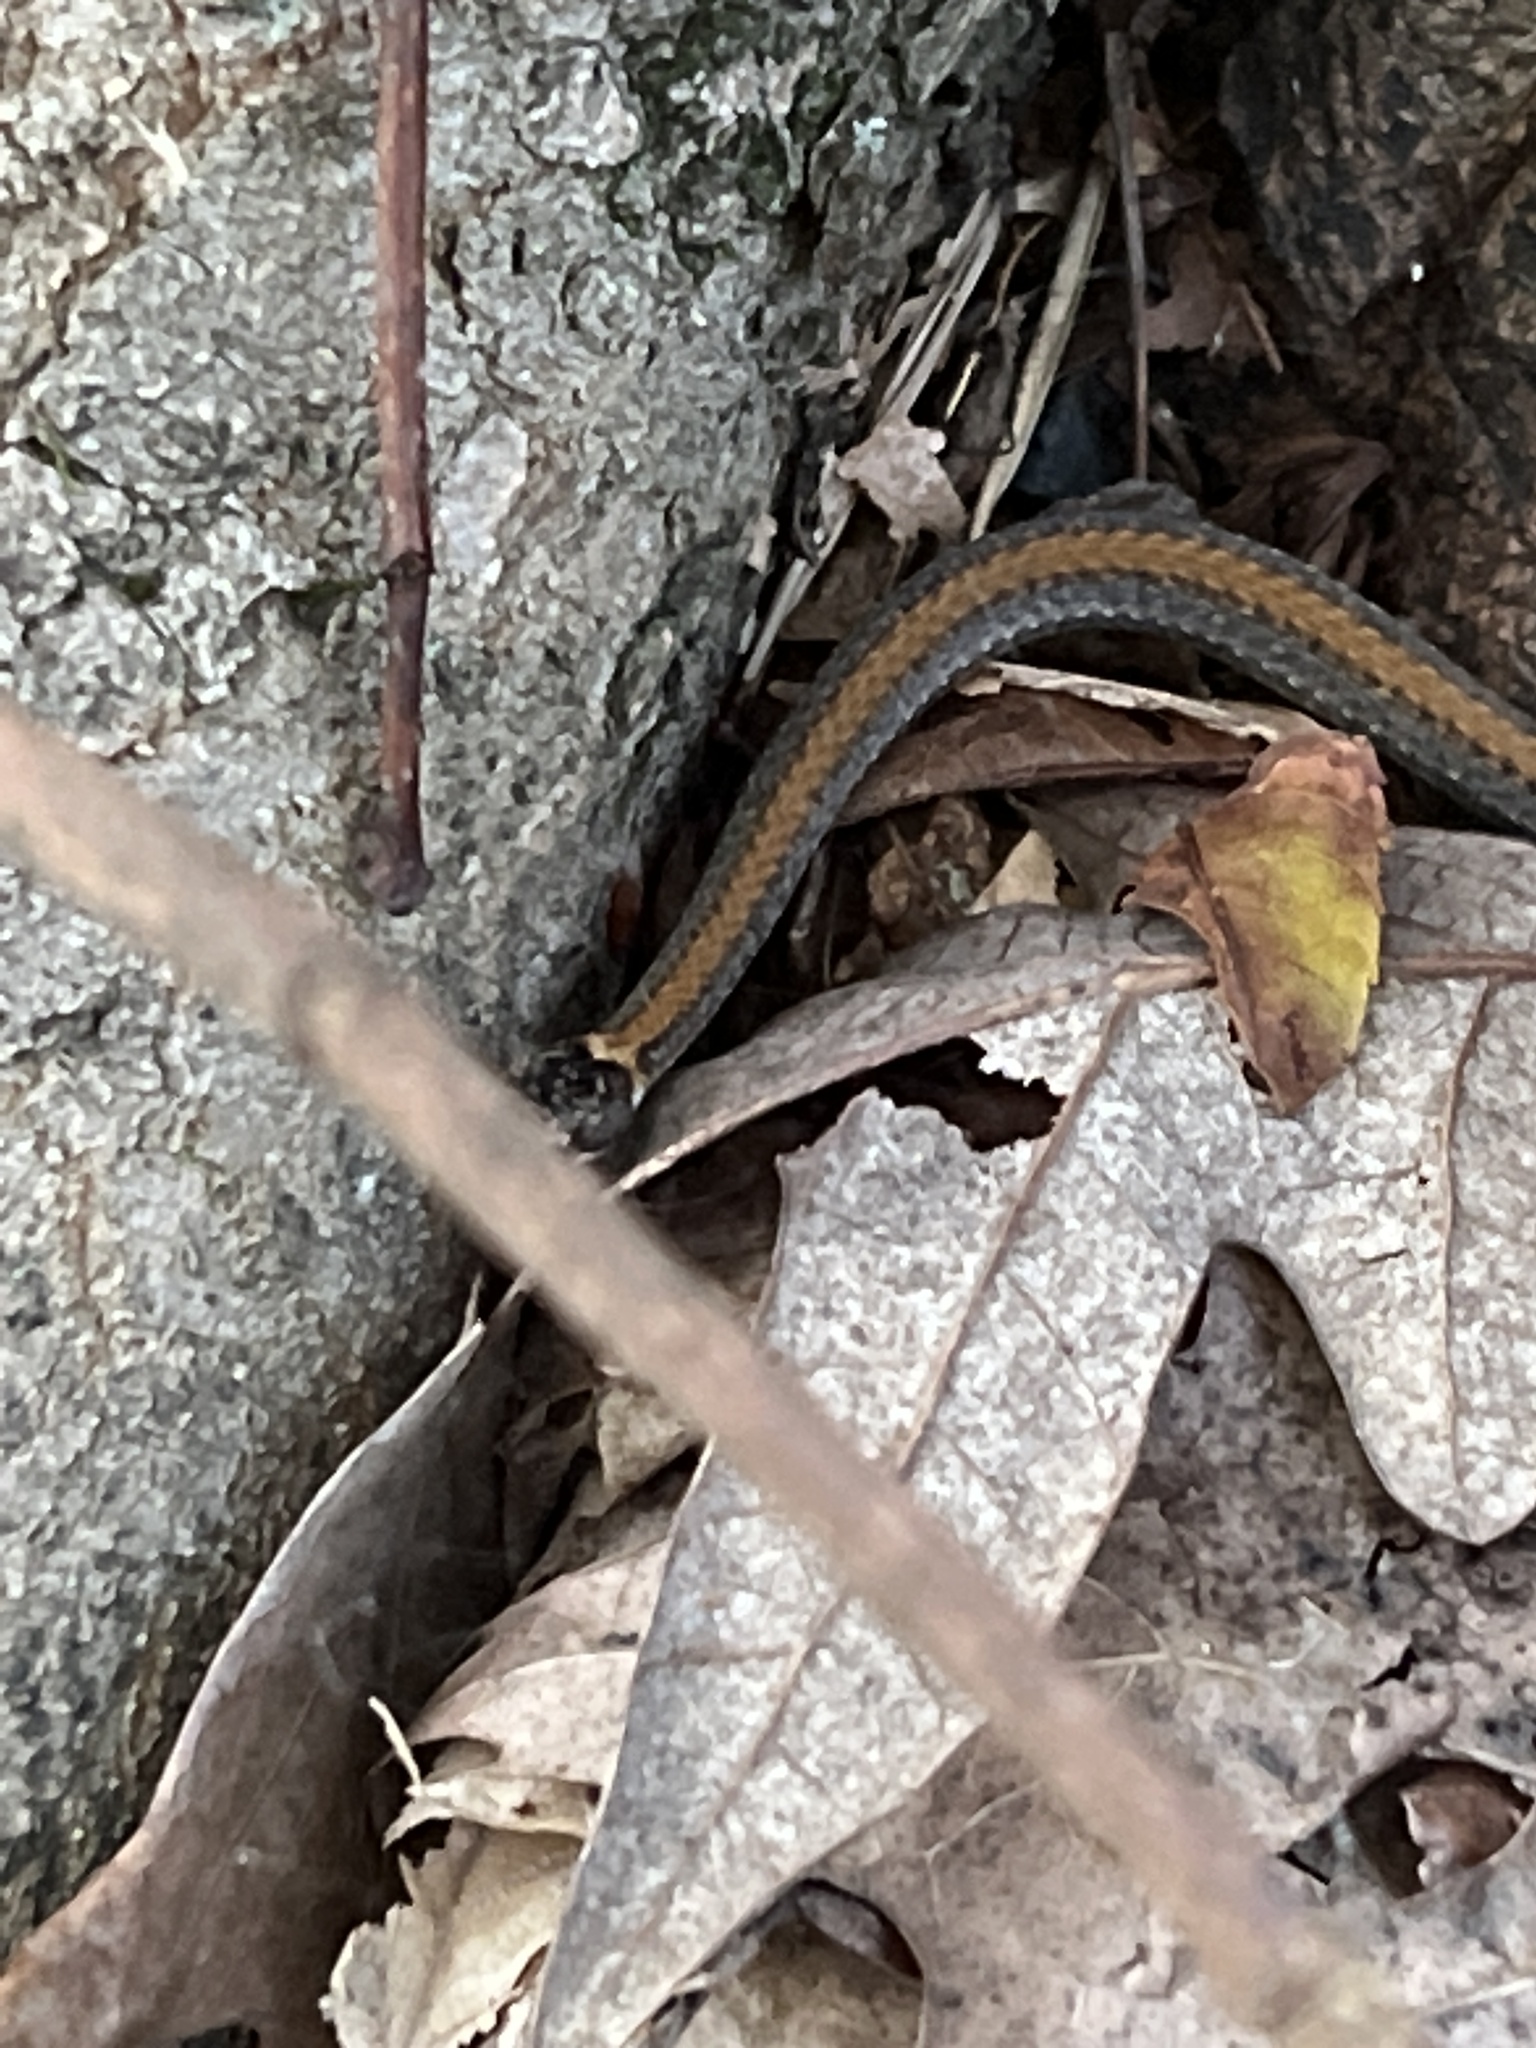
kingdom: Animalia
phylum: Chordata
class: Squamata
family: Colubridae
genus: Storeria
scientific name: Storeria occipitomaculata
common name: Redbelly snake
